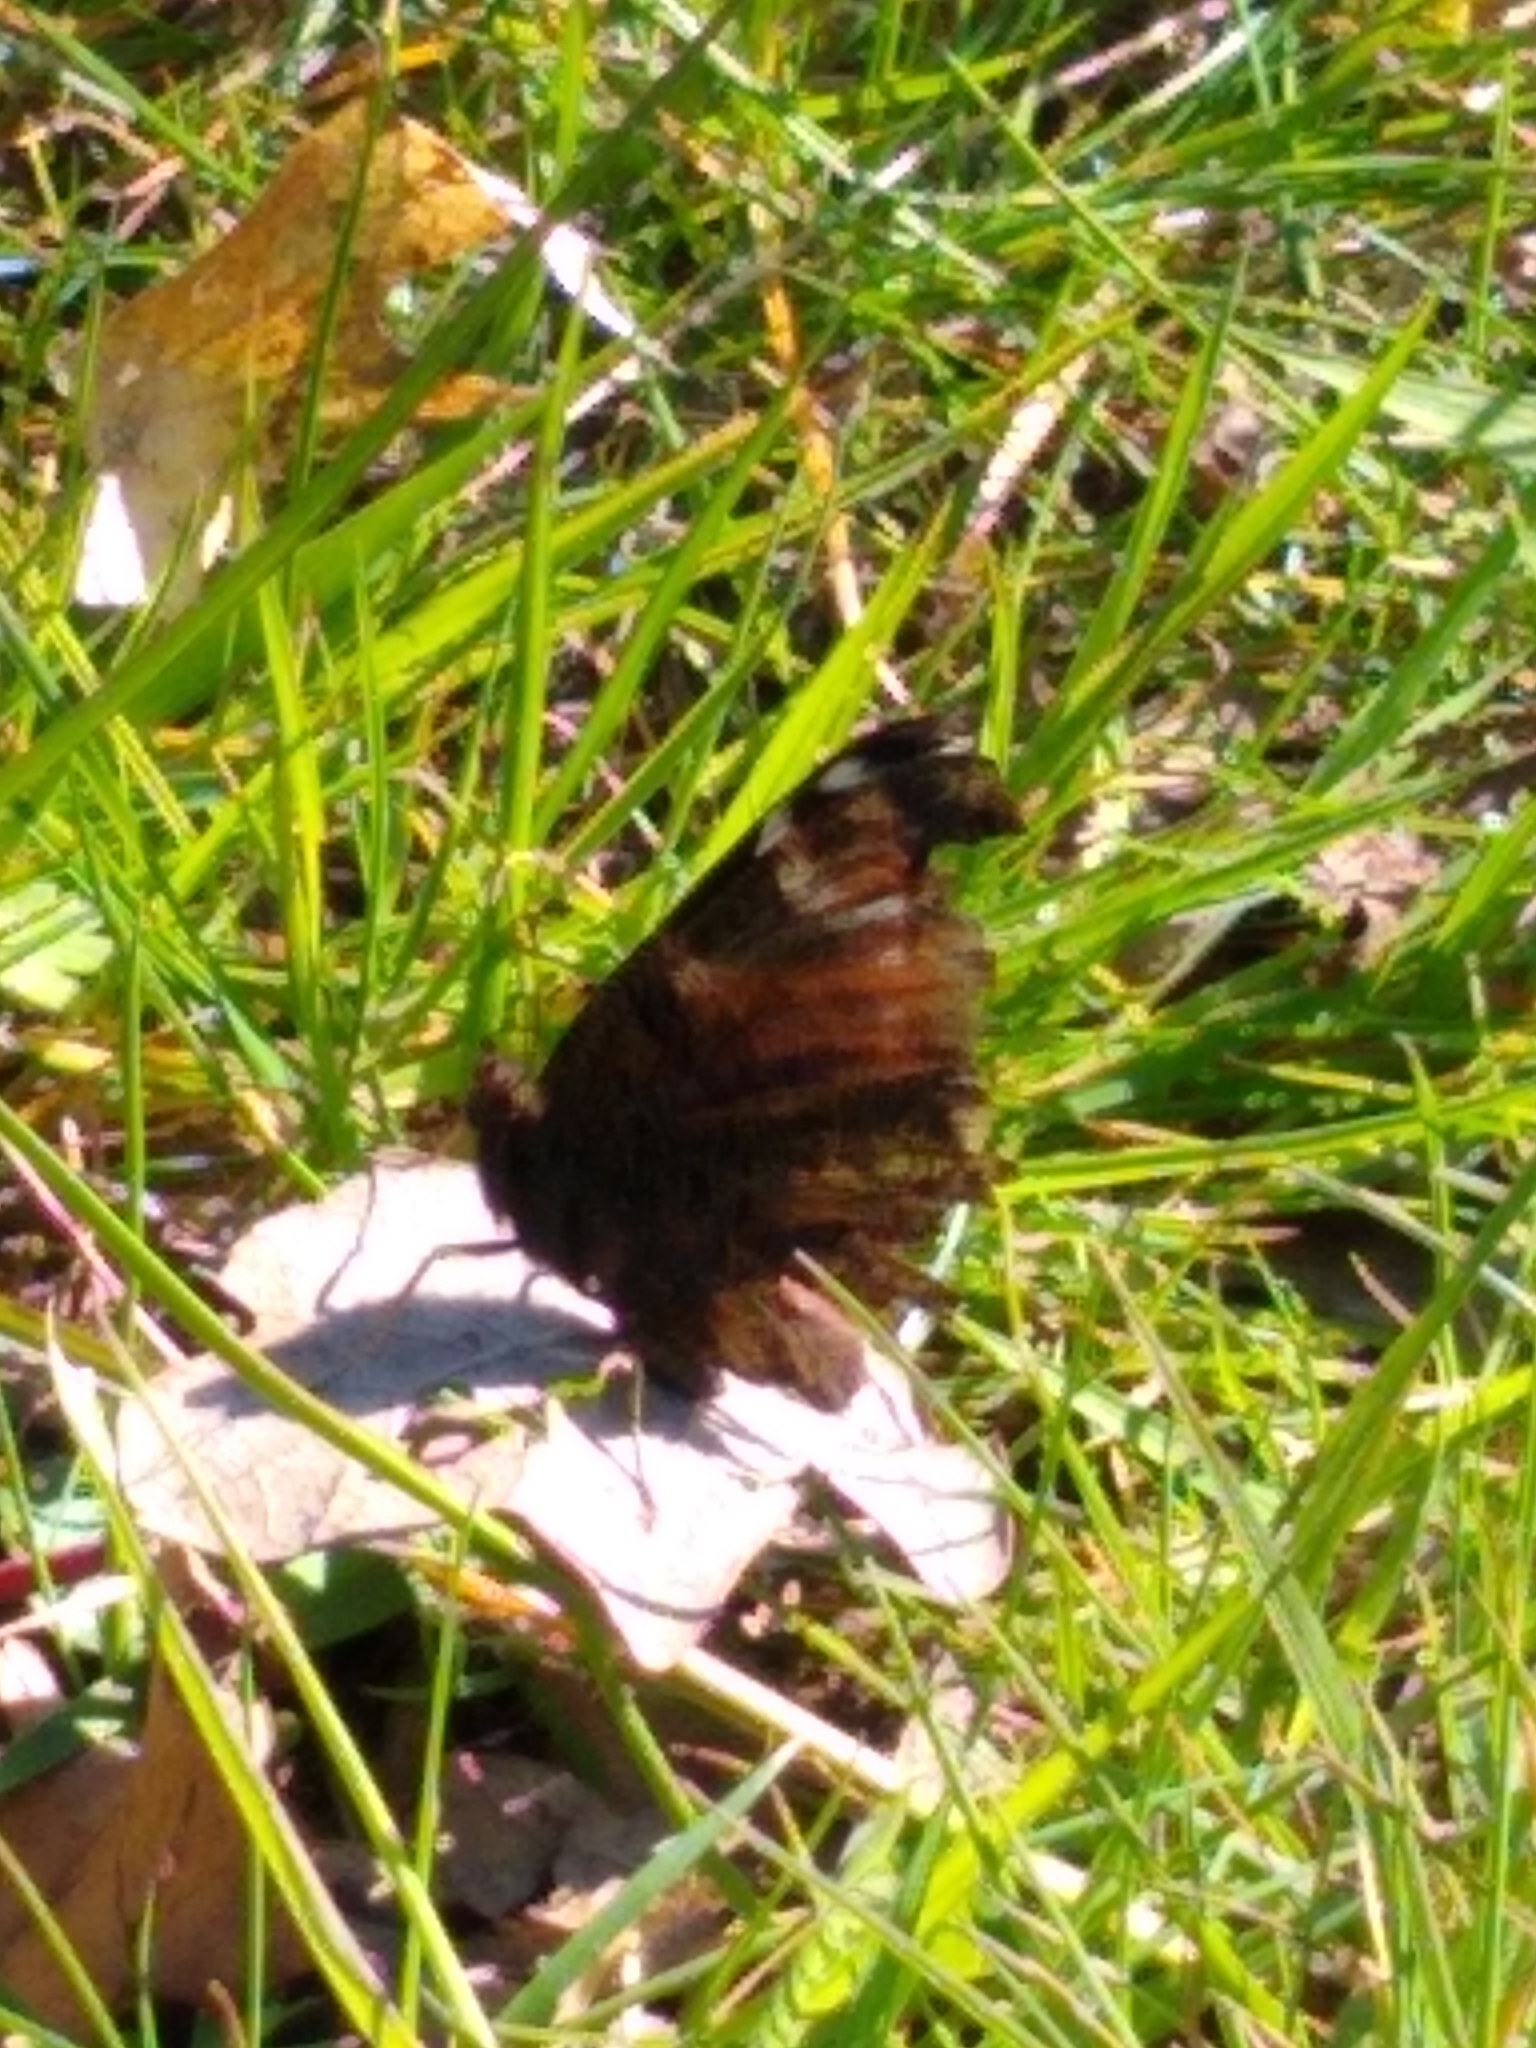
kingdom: Animalia
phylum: Arthropoda
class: Insecta
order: Lepidoptera
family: Nymphalidae
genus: Aglais
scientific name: Aglais io
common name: Peacock
